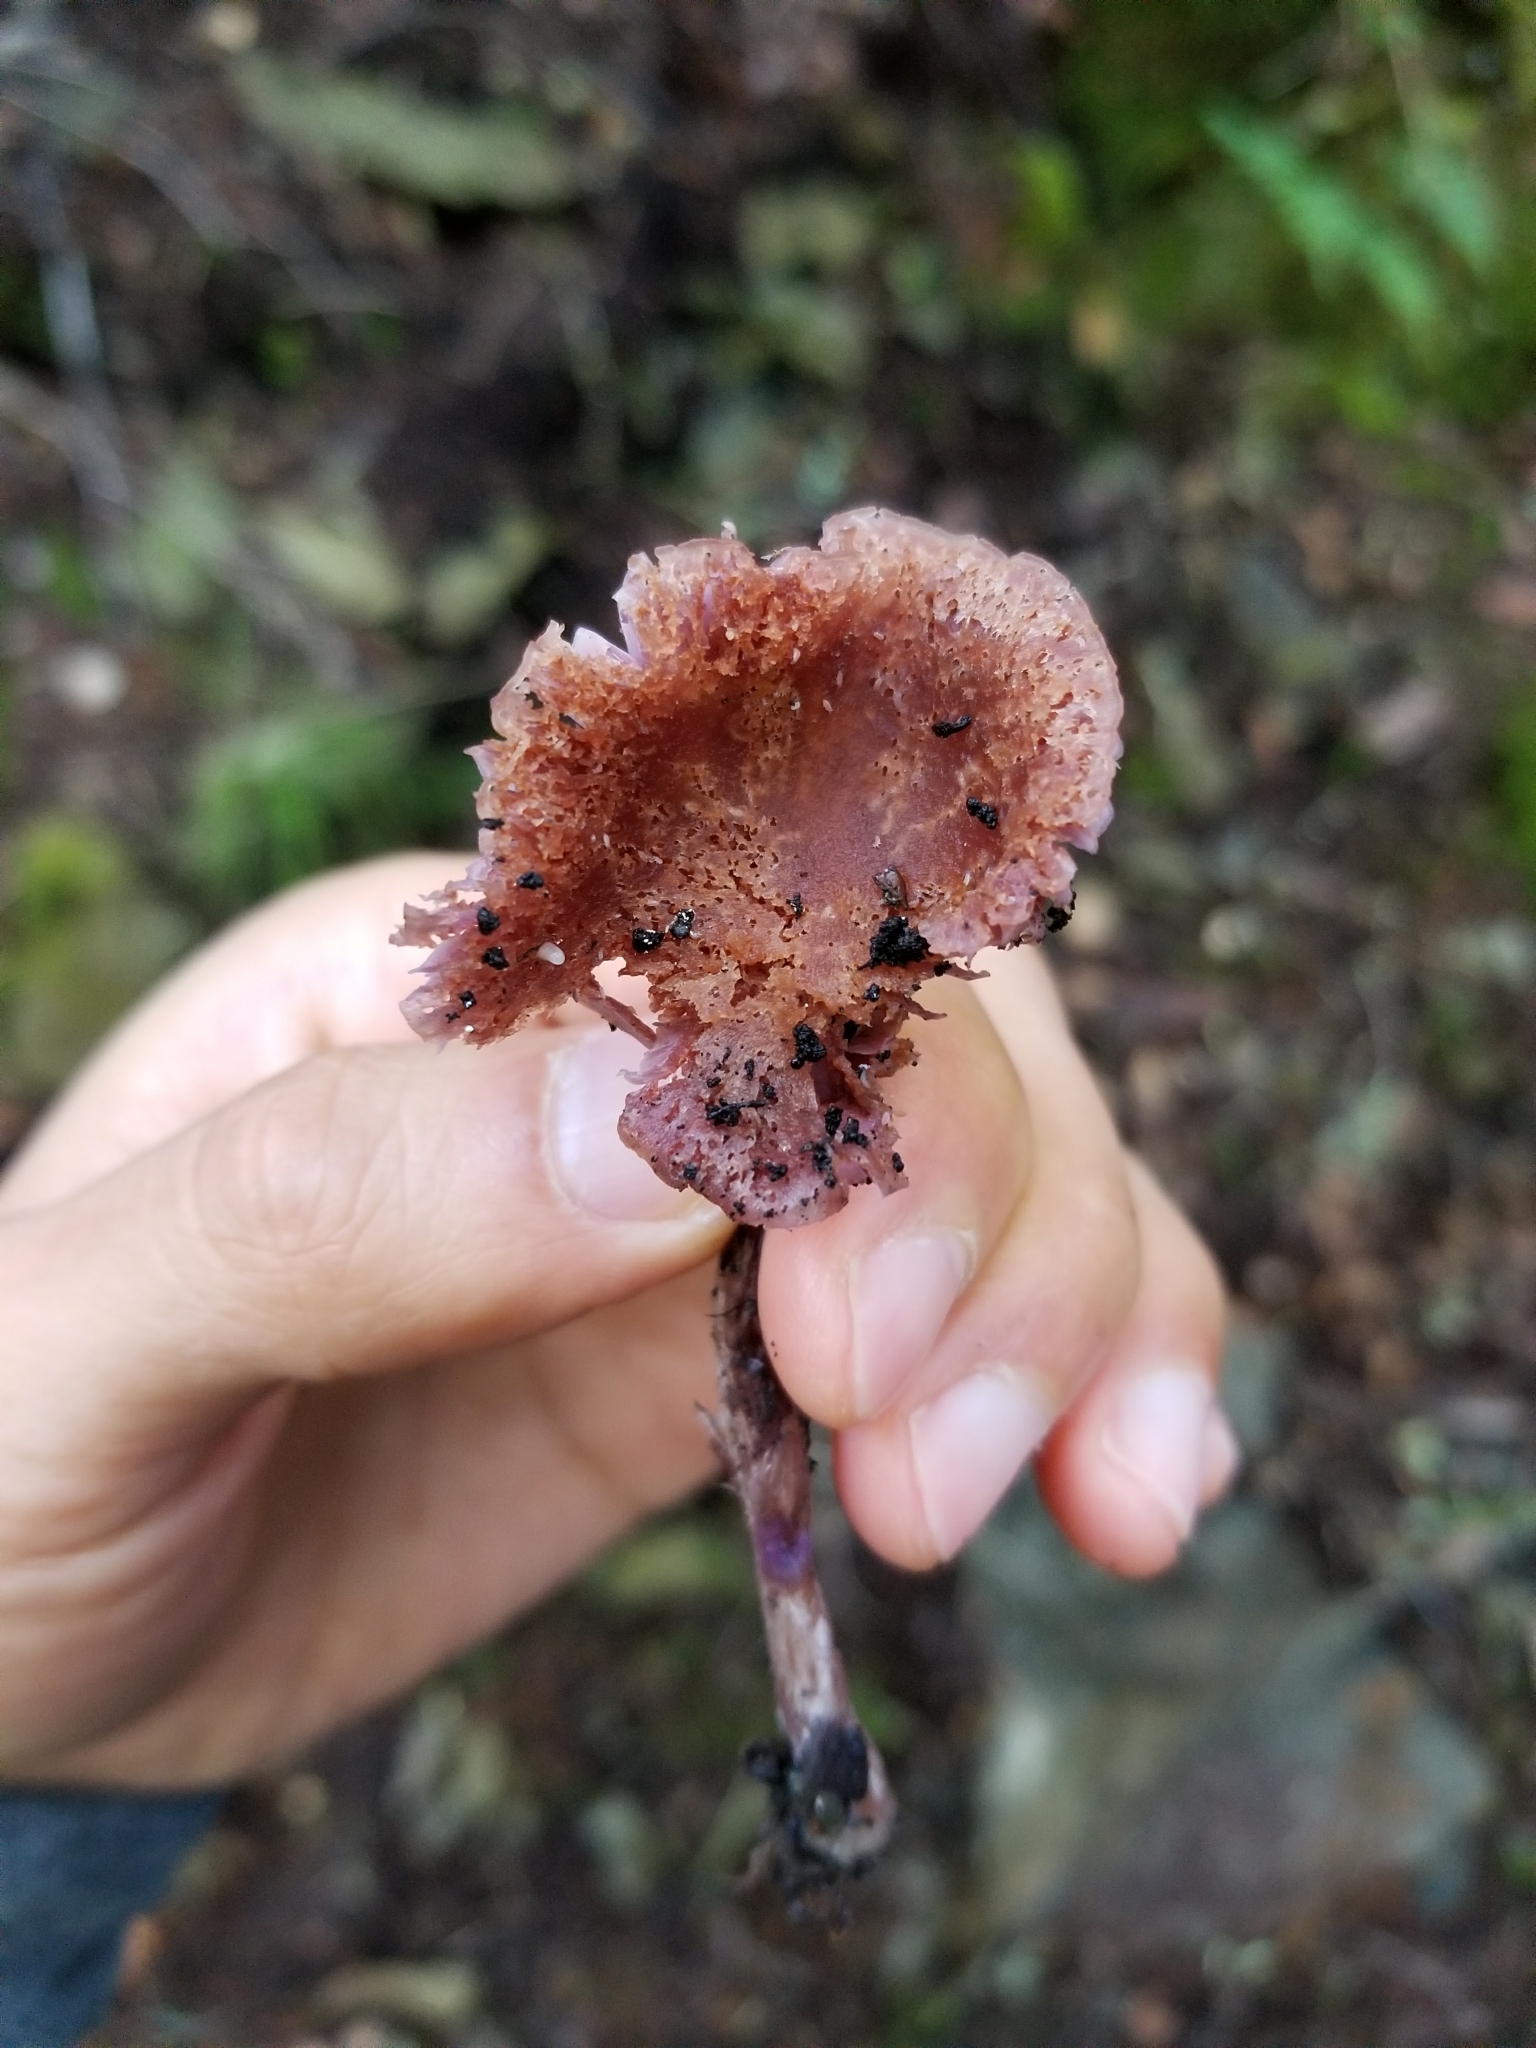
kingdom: Fungi
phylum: Basidiomycota
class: Agaricomycetes
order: Agaricales
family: Hydnangiaceae
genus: Laccaria
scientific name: Laccaria amethysteo-occidentalis
